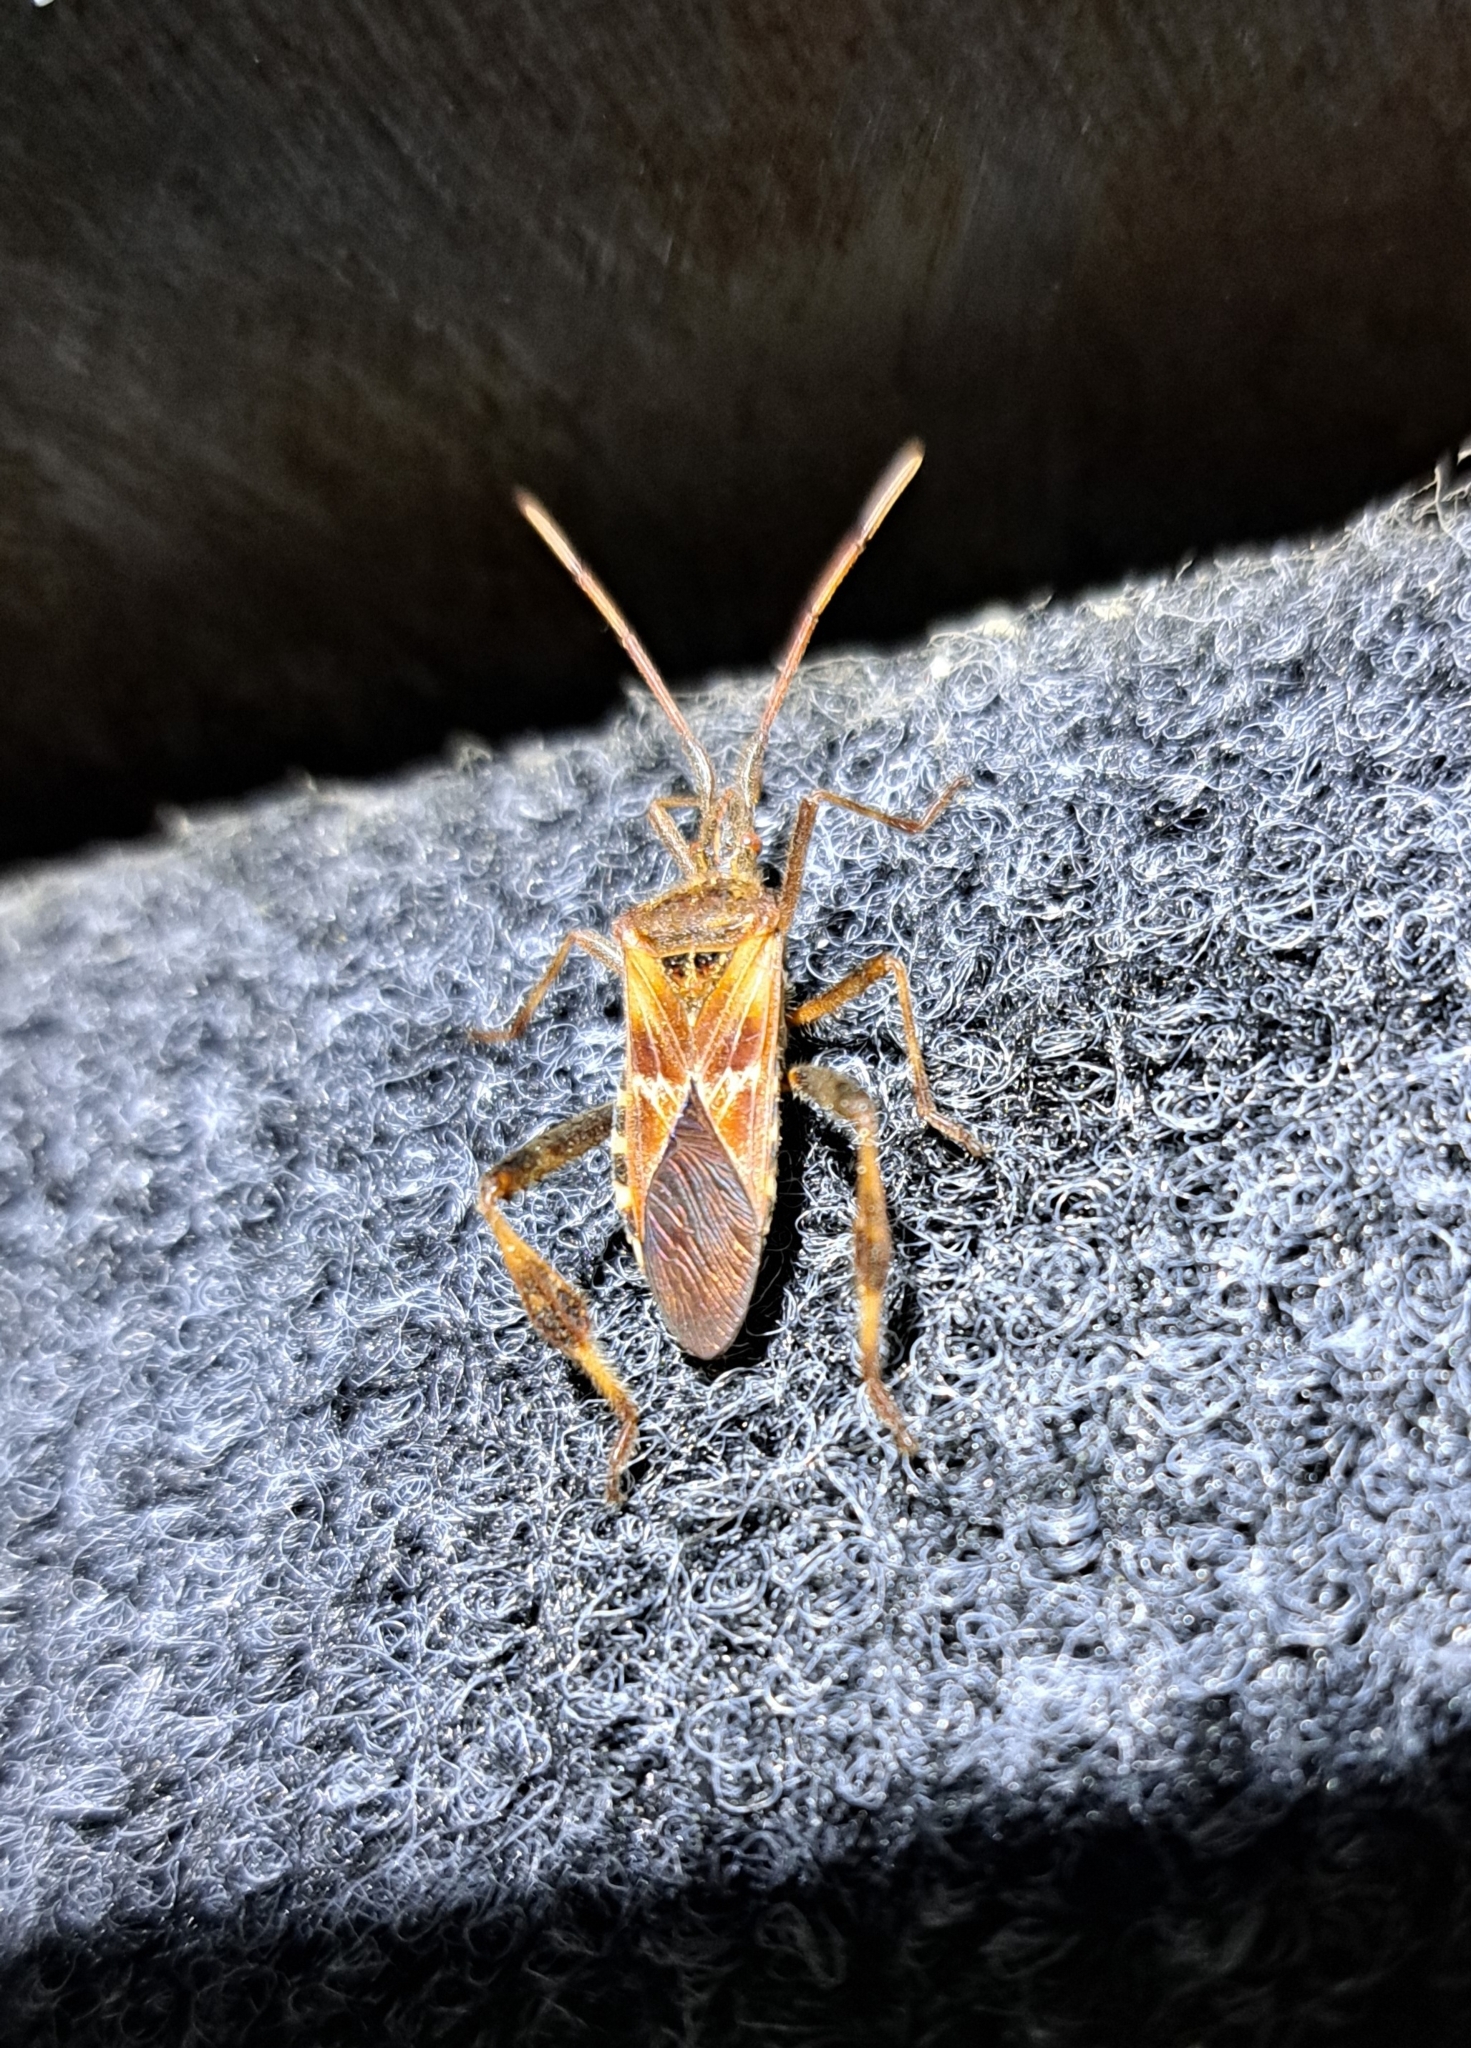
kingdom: Animalia
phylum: Arthropoda
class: Insecta
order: Hemiptera
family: Coreidae
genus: Leptoglossus
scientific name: Leptoglossus occidentalis
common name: Western conifer-seed bug
